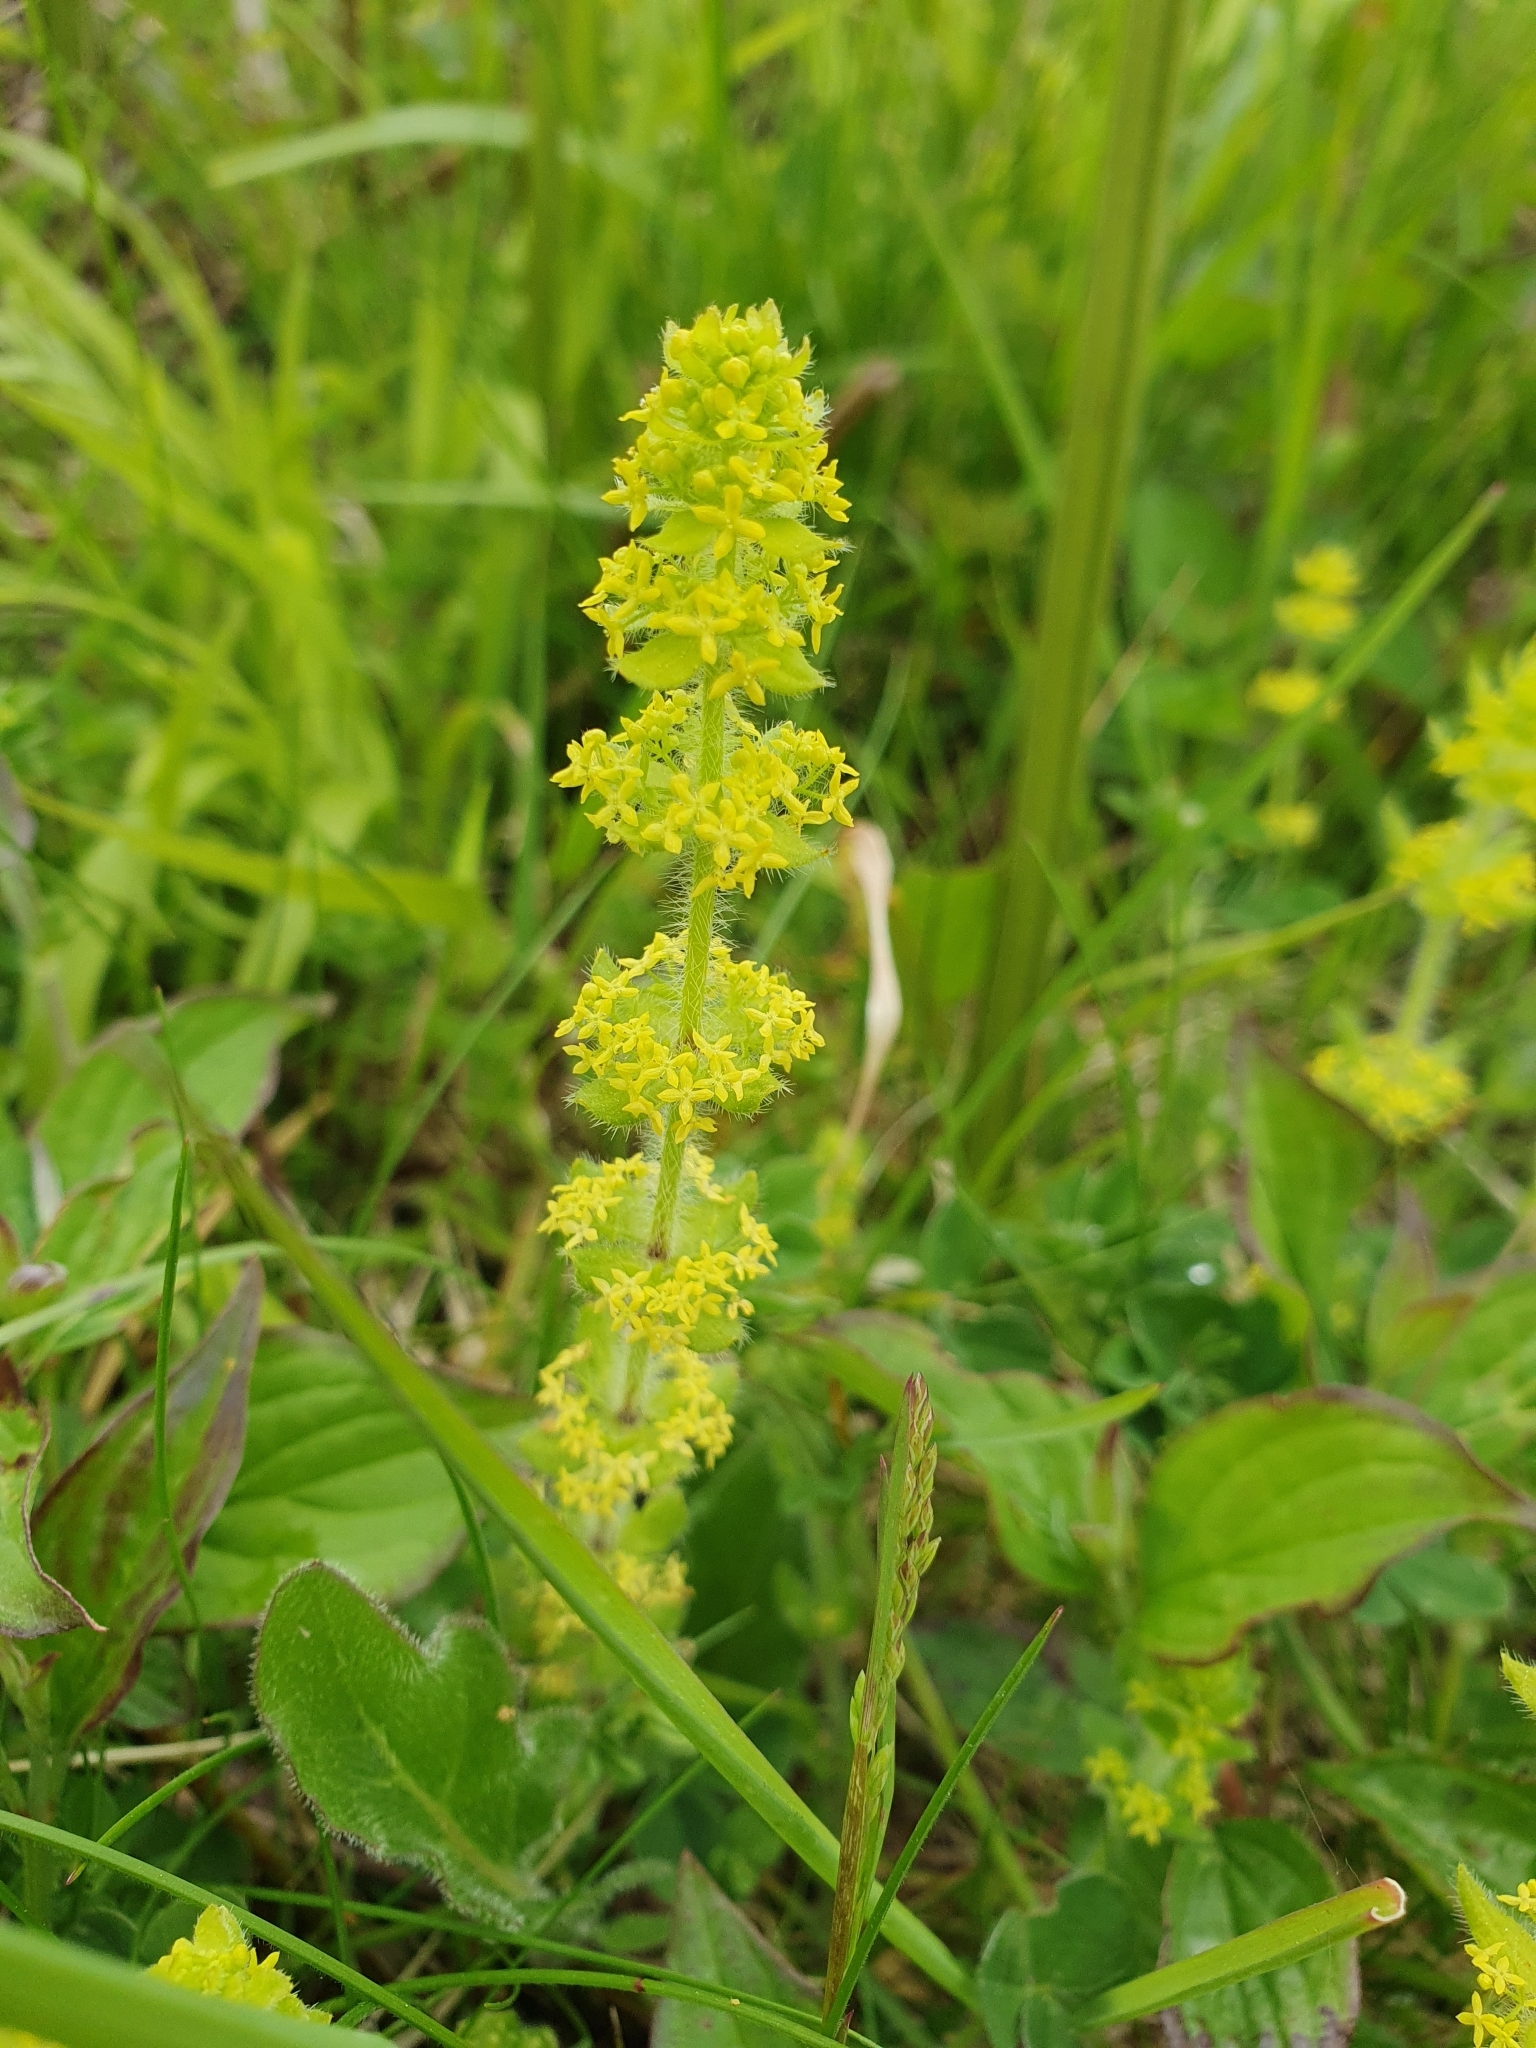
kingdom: Plantae
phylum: Tracheophyta
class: Magnoliopsida
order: Gentianales
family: Rubiaceae
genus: Cruciata
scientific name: Cruciata laevipes
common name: Crosswort
